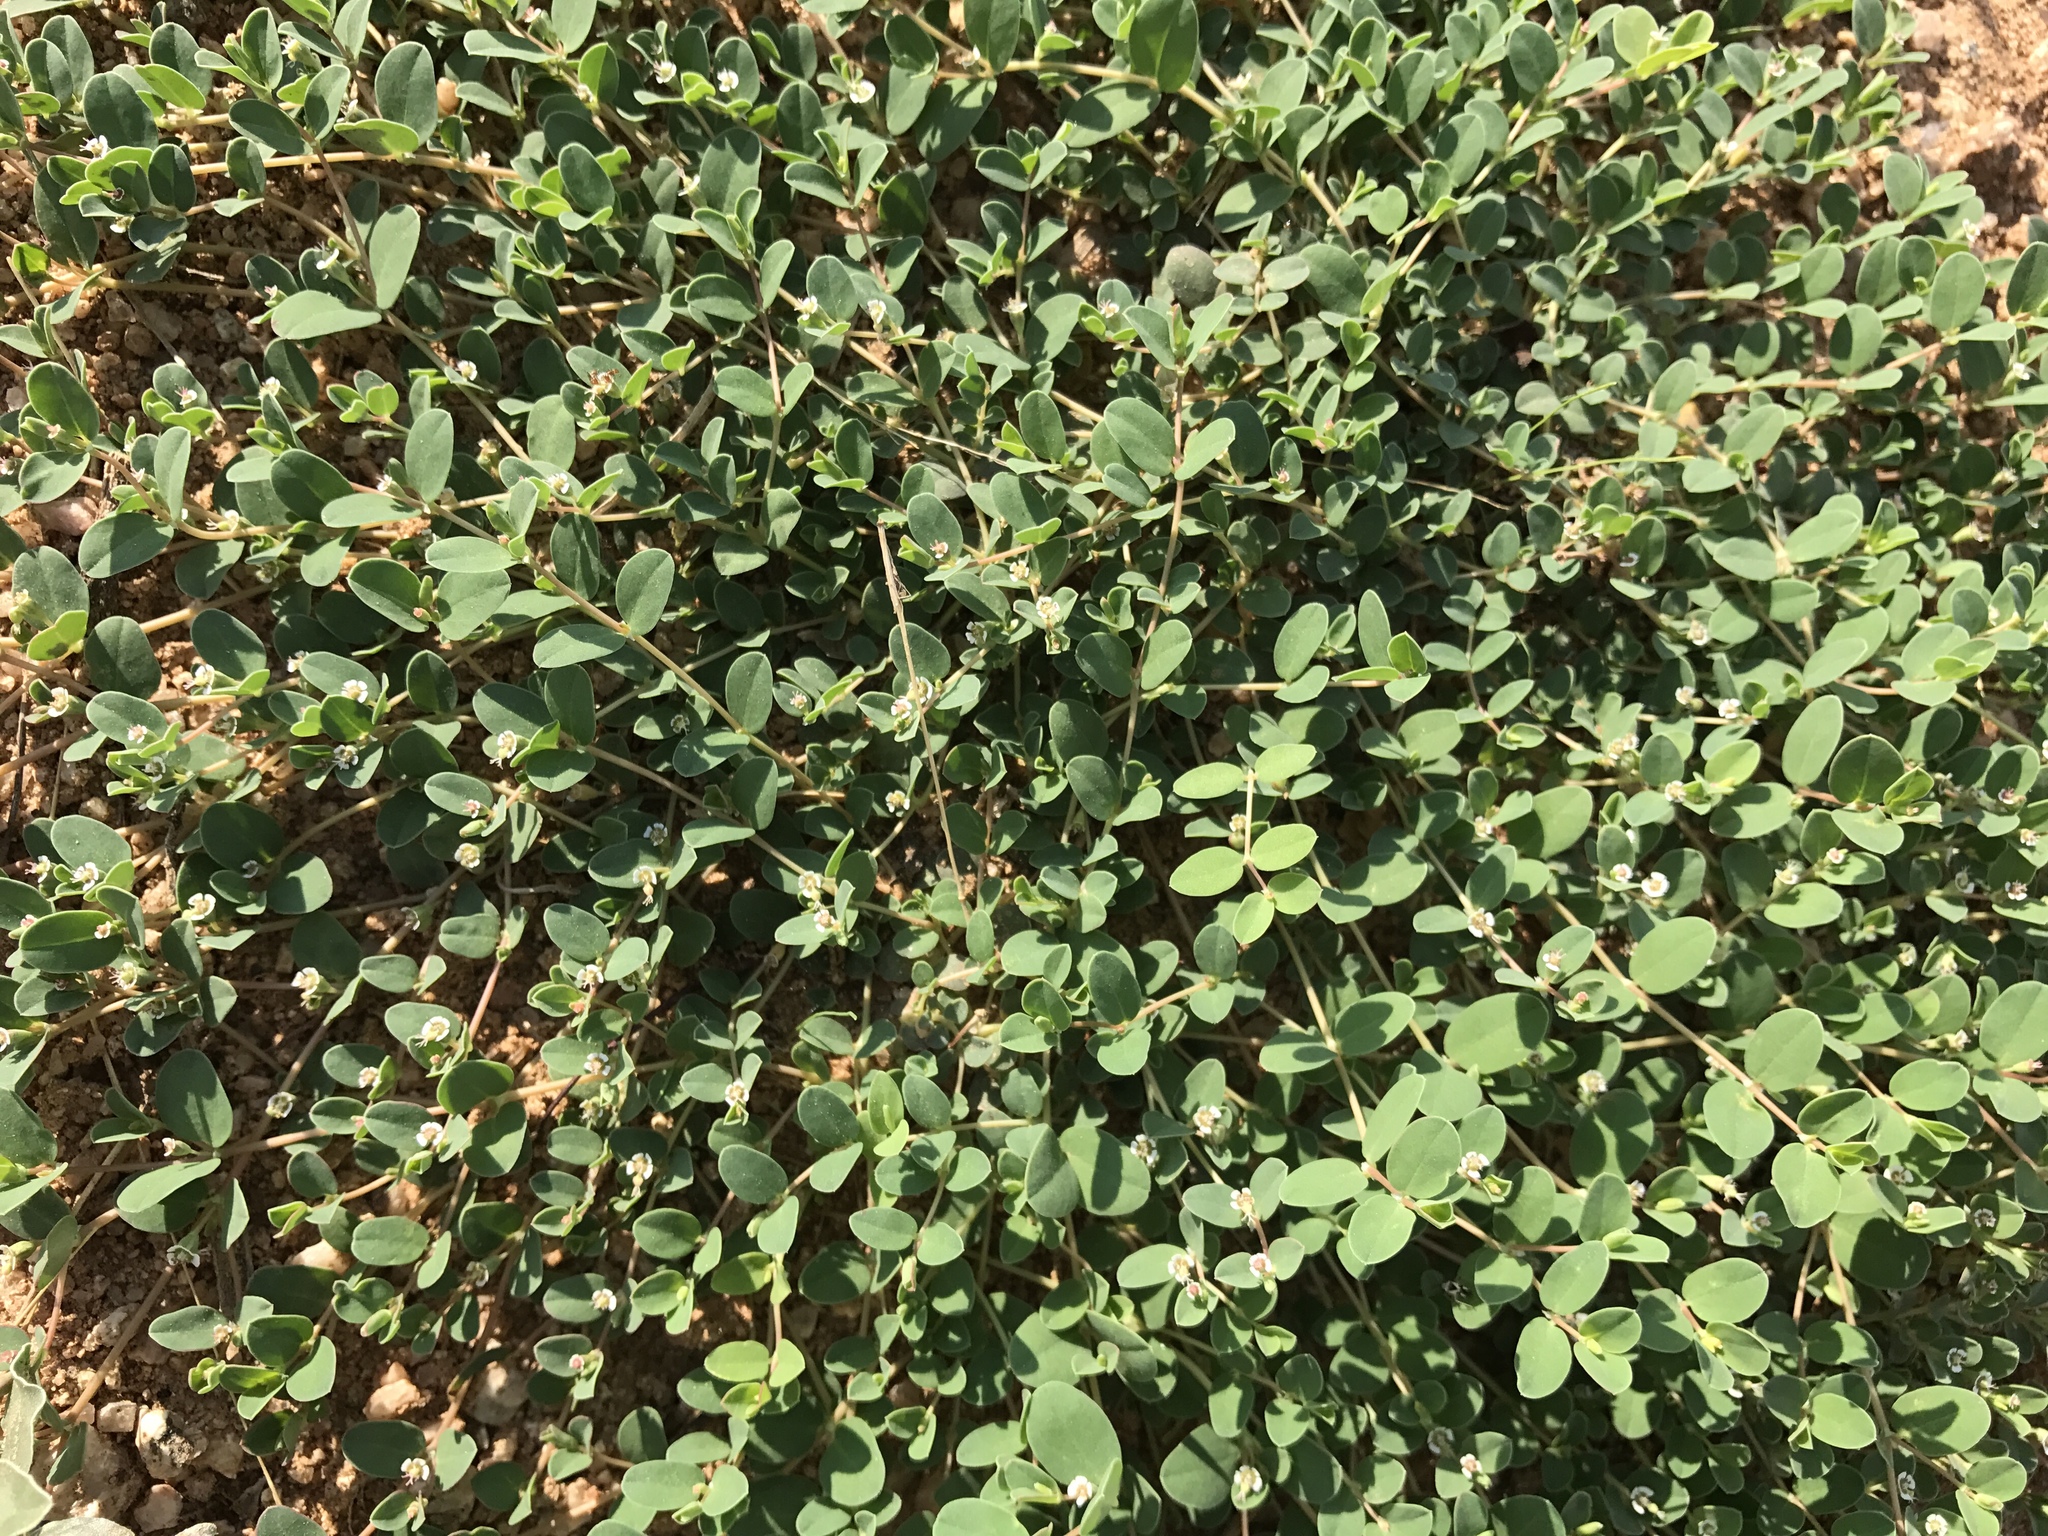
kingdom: Plantae
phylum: Tracheophyta
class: Magnoliopsida
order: Malpighiales
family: Euphorbiaceae
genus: Euphorbia
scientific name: Euphorbia albomarginata
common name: Whitemargin sandmat
